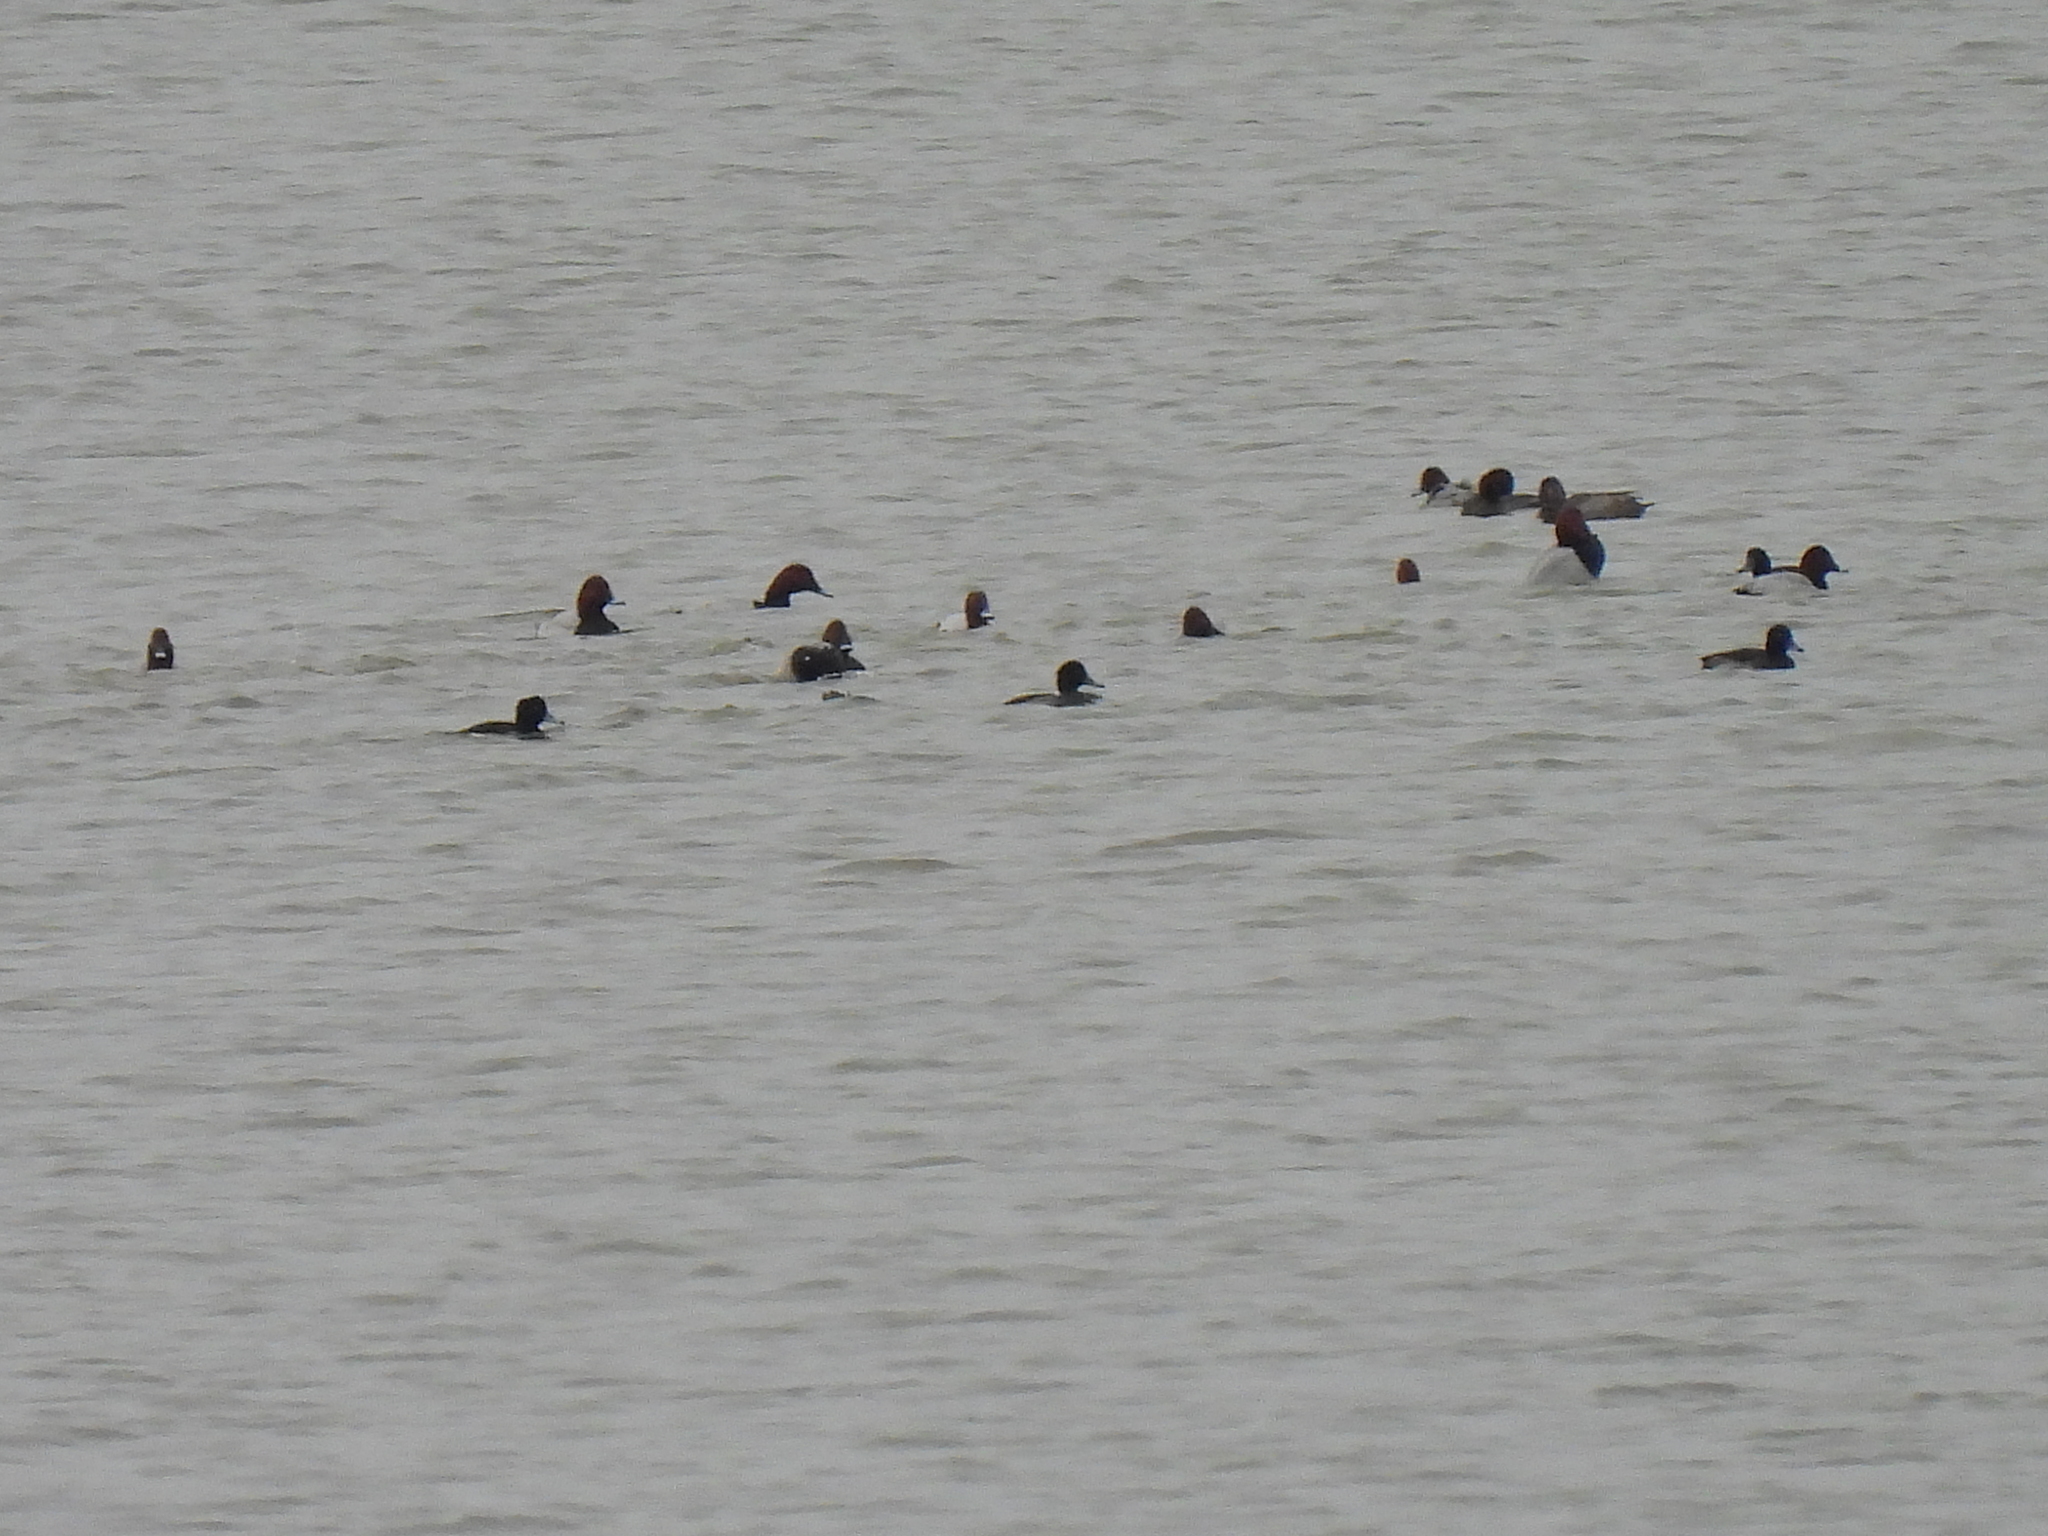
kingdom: Animalia
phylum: Chordata
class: Aves
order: Anseriformes
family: Anatidae
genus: Aythya
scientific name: Aythya ferina
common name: Common pochard
